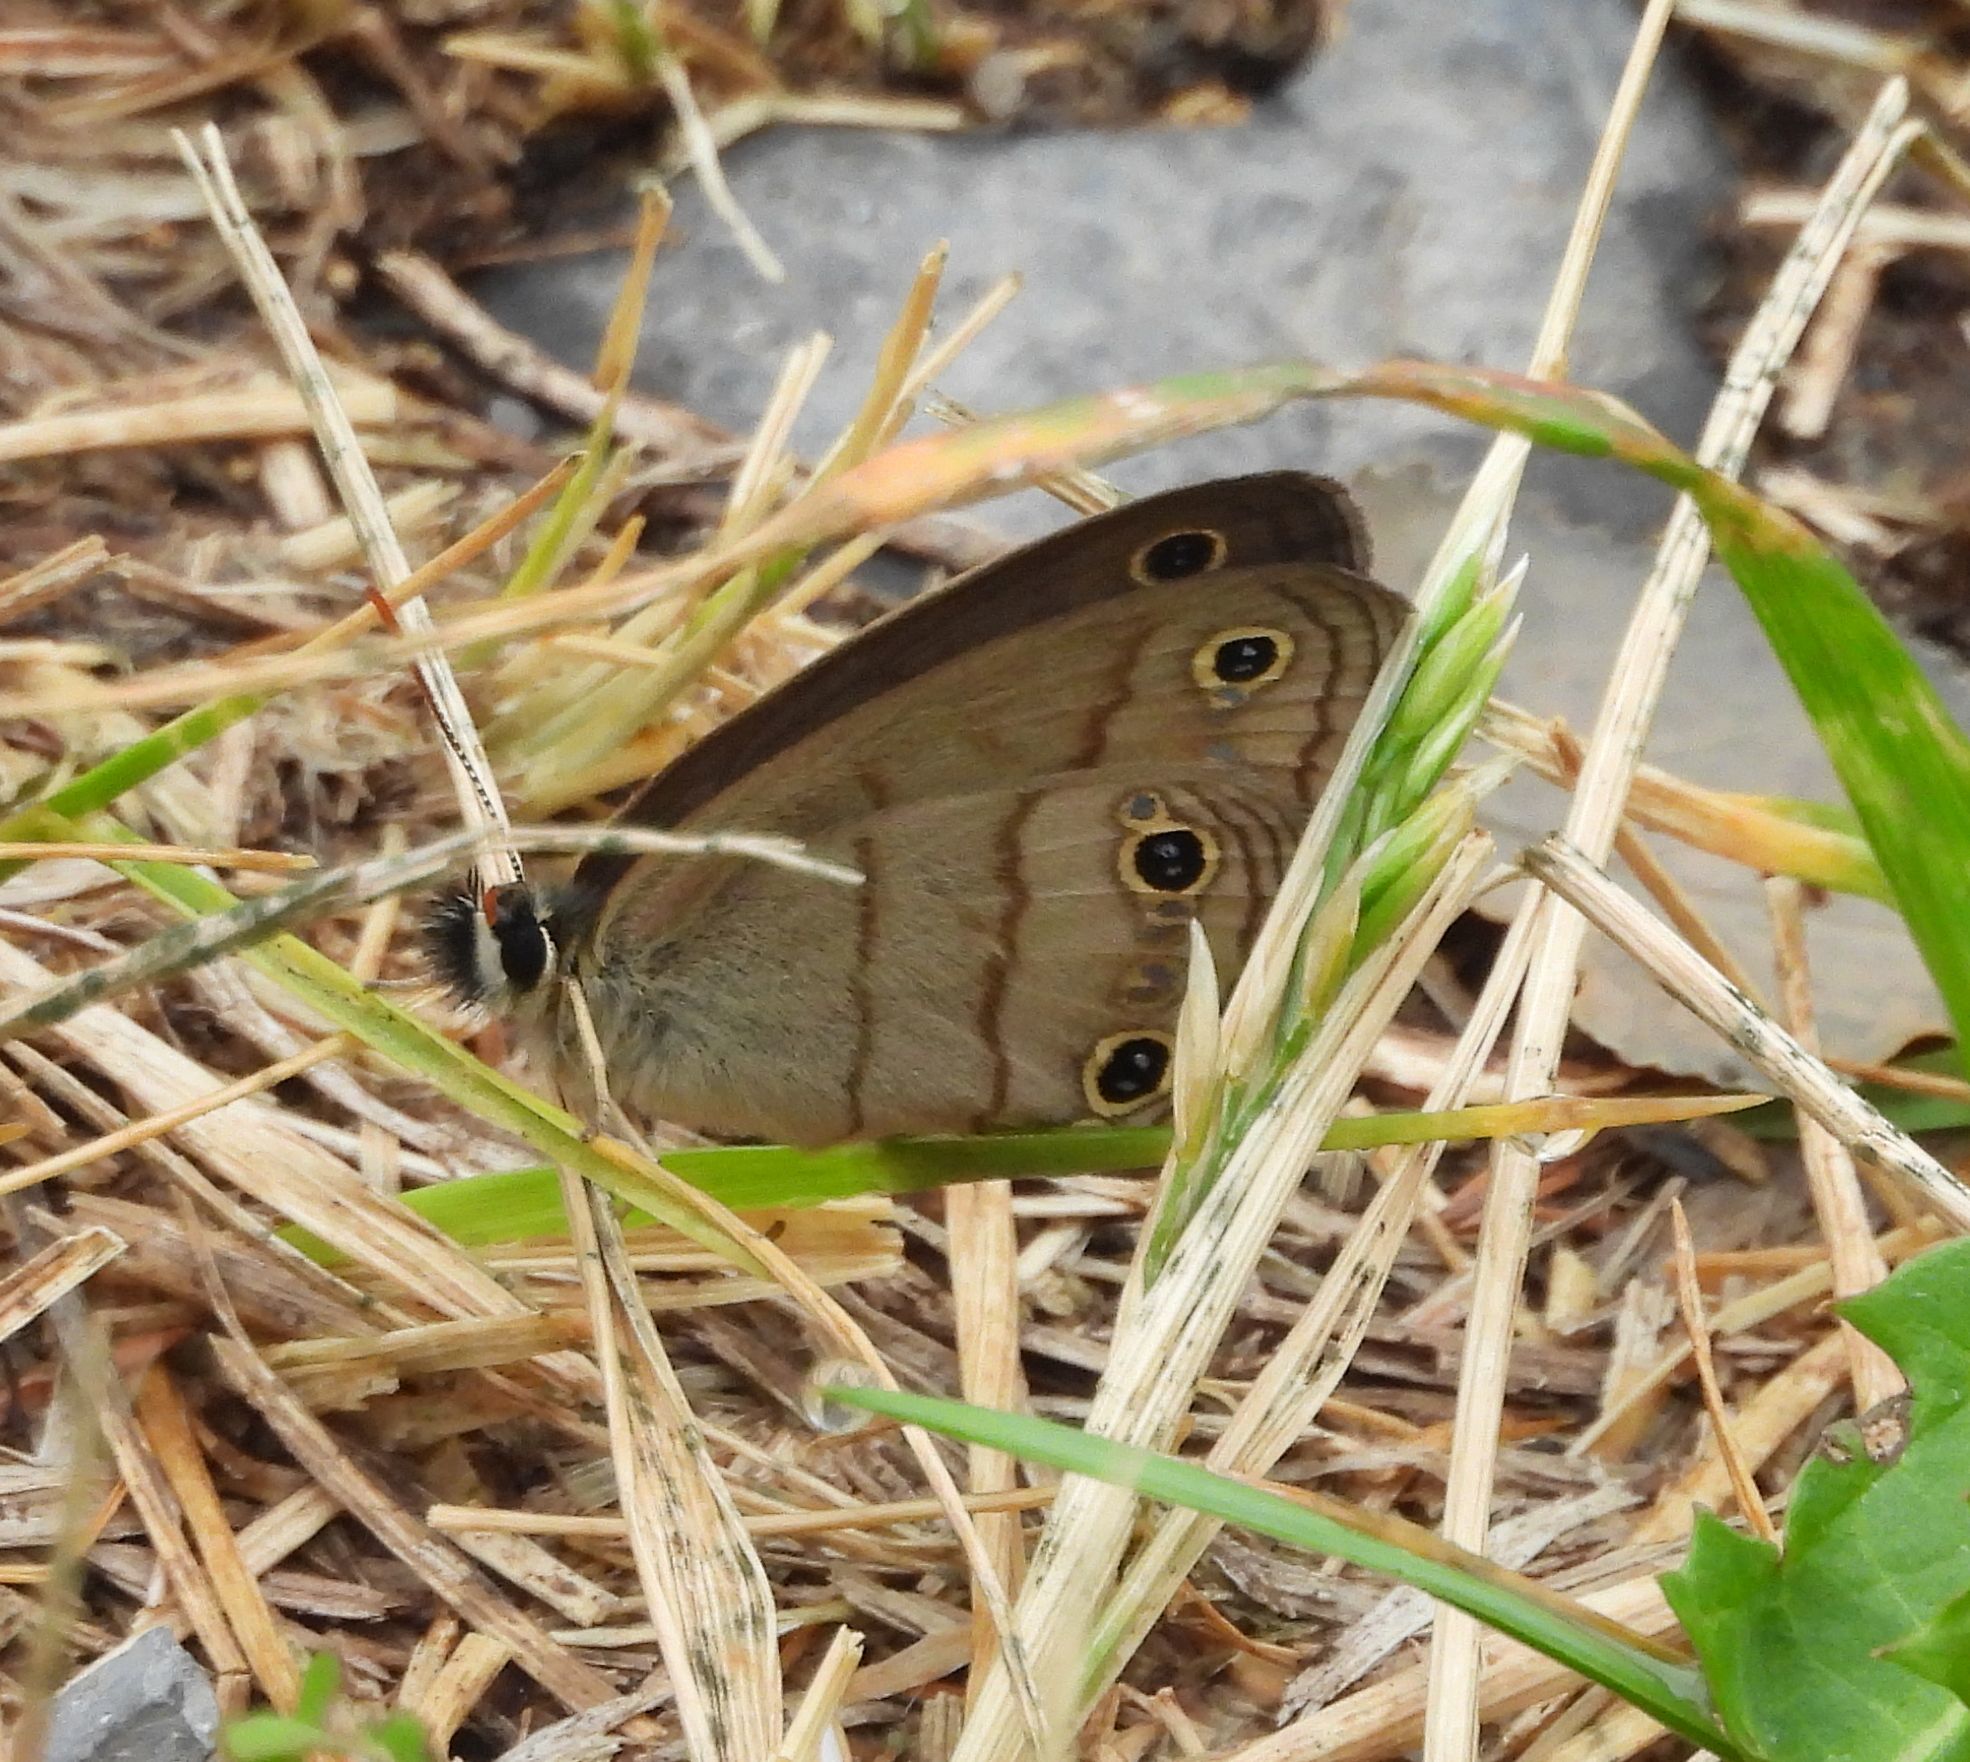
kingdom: Animalia
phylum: Arthropoda
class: Insecta
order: Lepidoptera
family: Nymphalidae
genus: Euptychia
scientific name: Euptychia cymela
